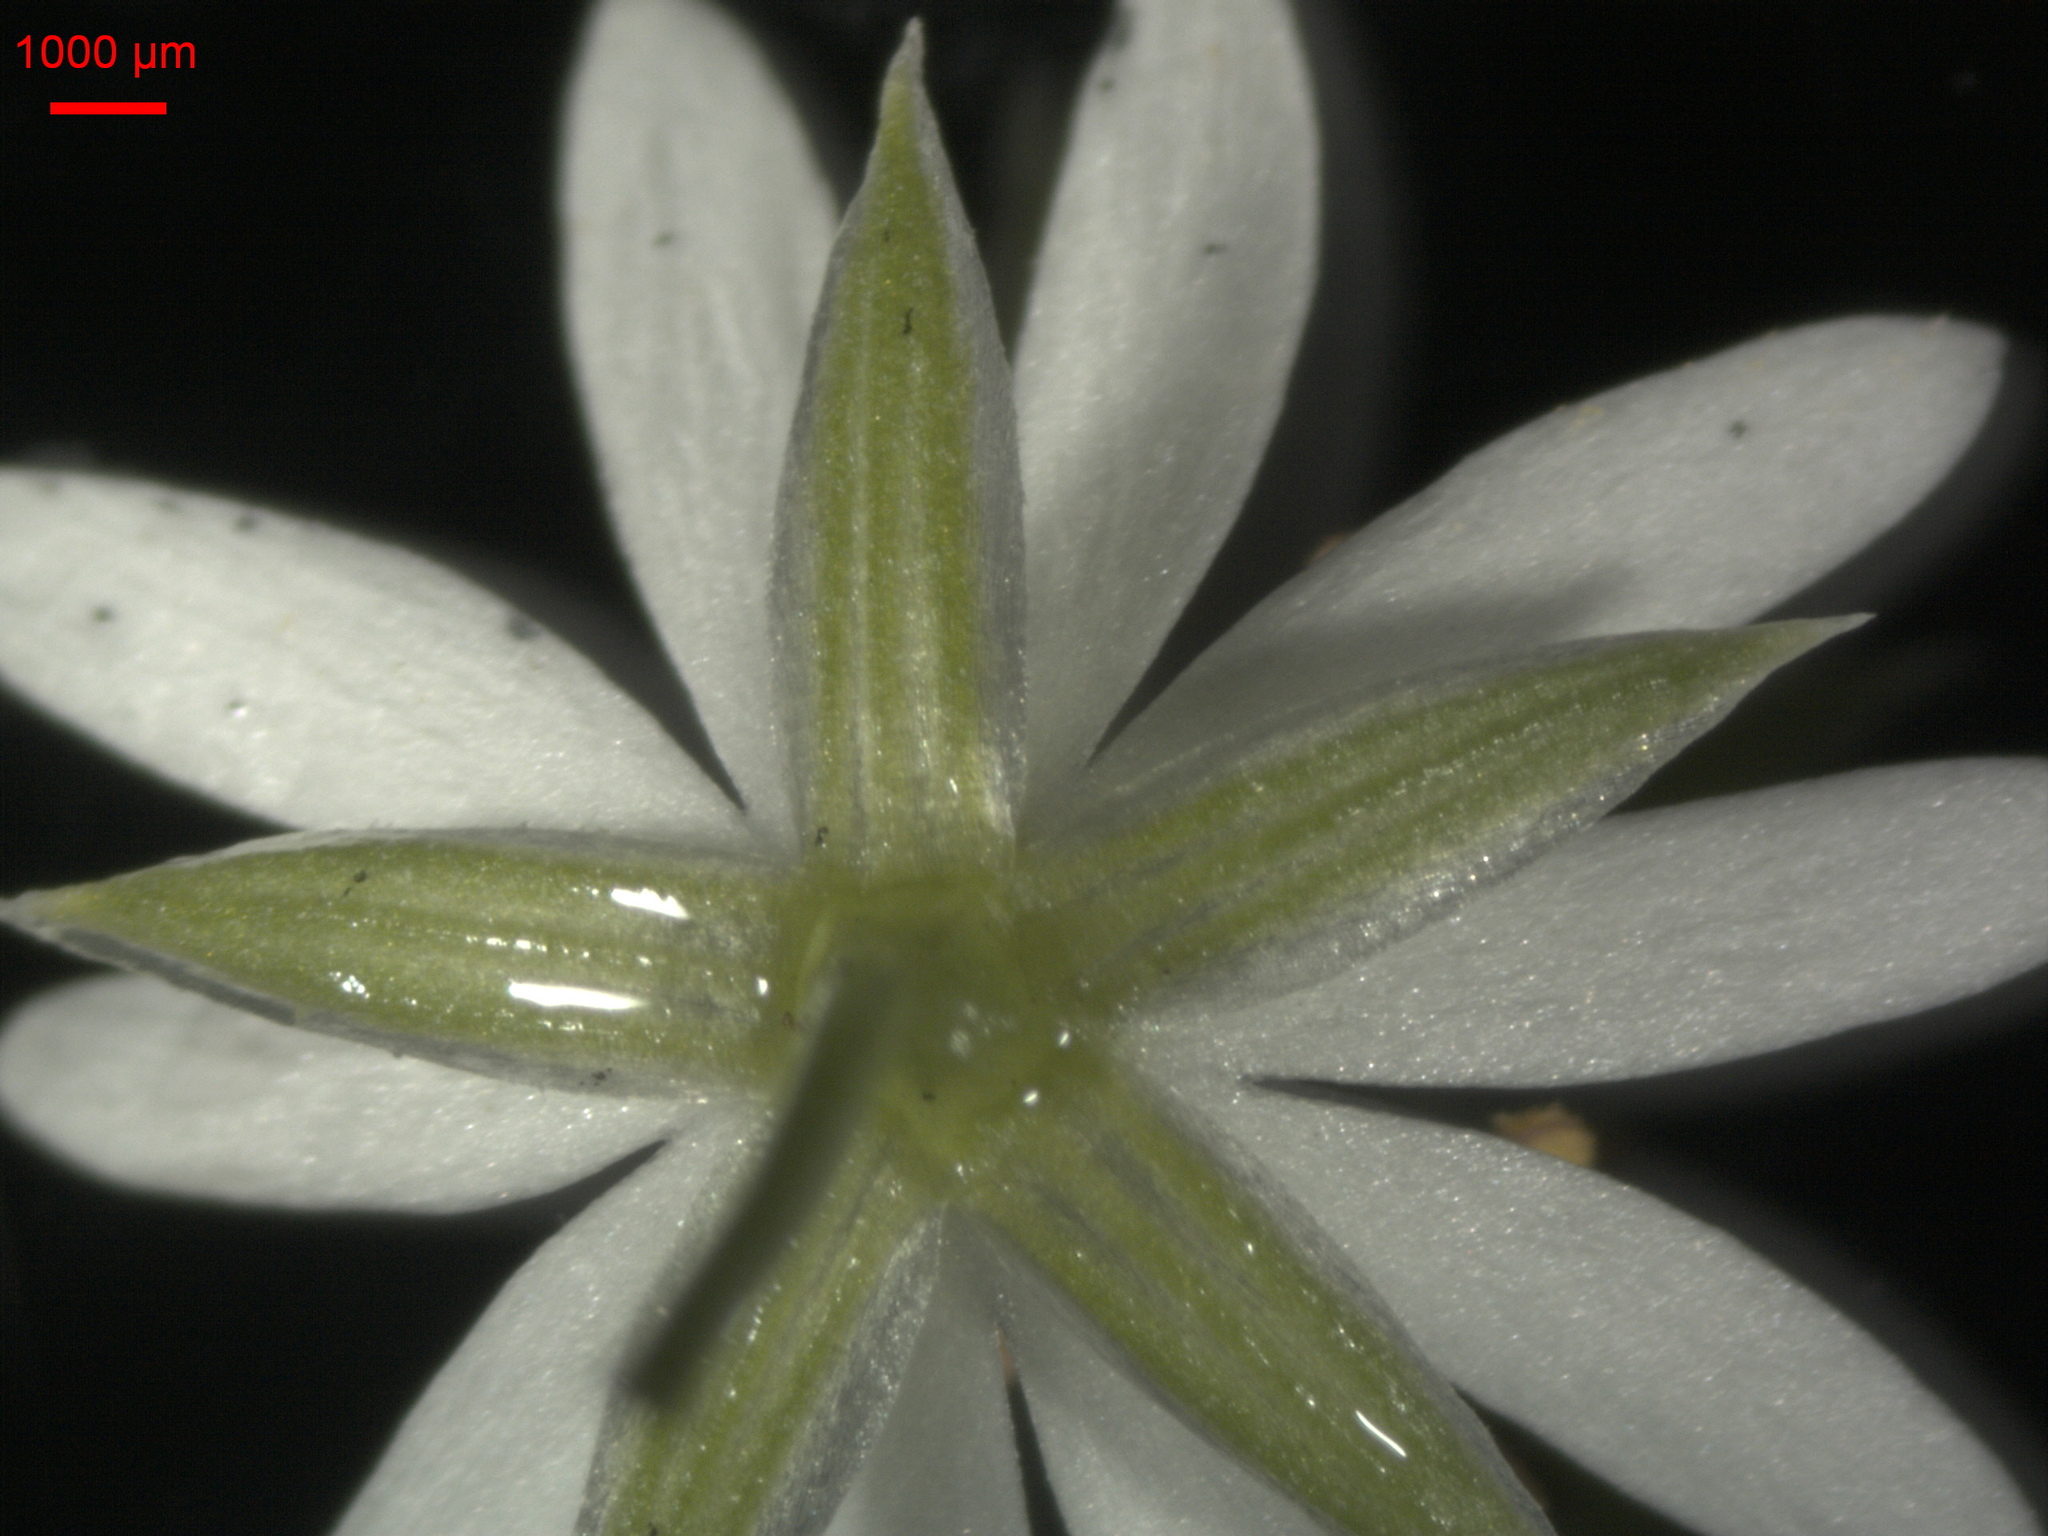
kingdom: Plantae
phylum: Tracheophyta
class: Magnoliopsida
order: Caryophyllales
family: Caryophyllaceae
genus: Stellaria
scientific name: Stellaria graminea
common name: Grass-like starwort
